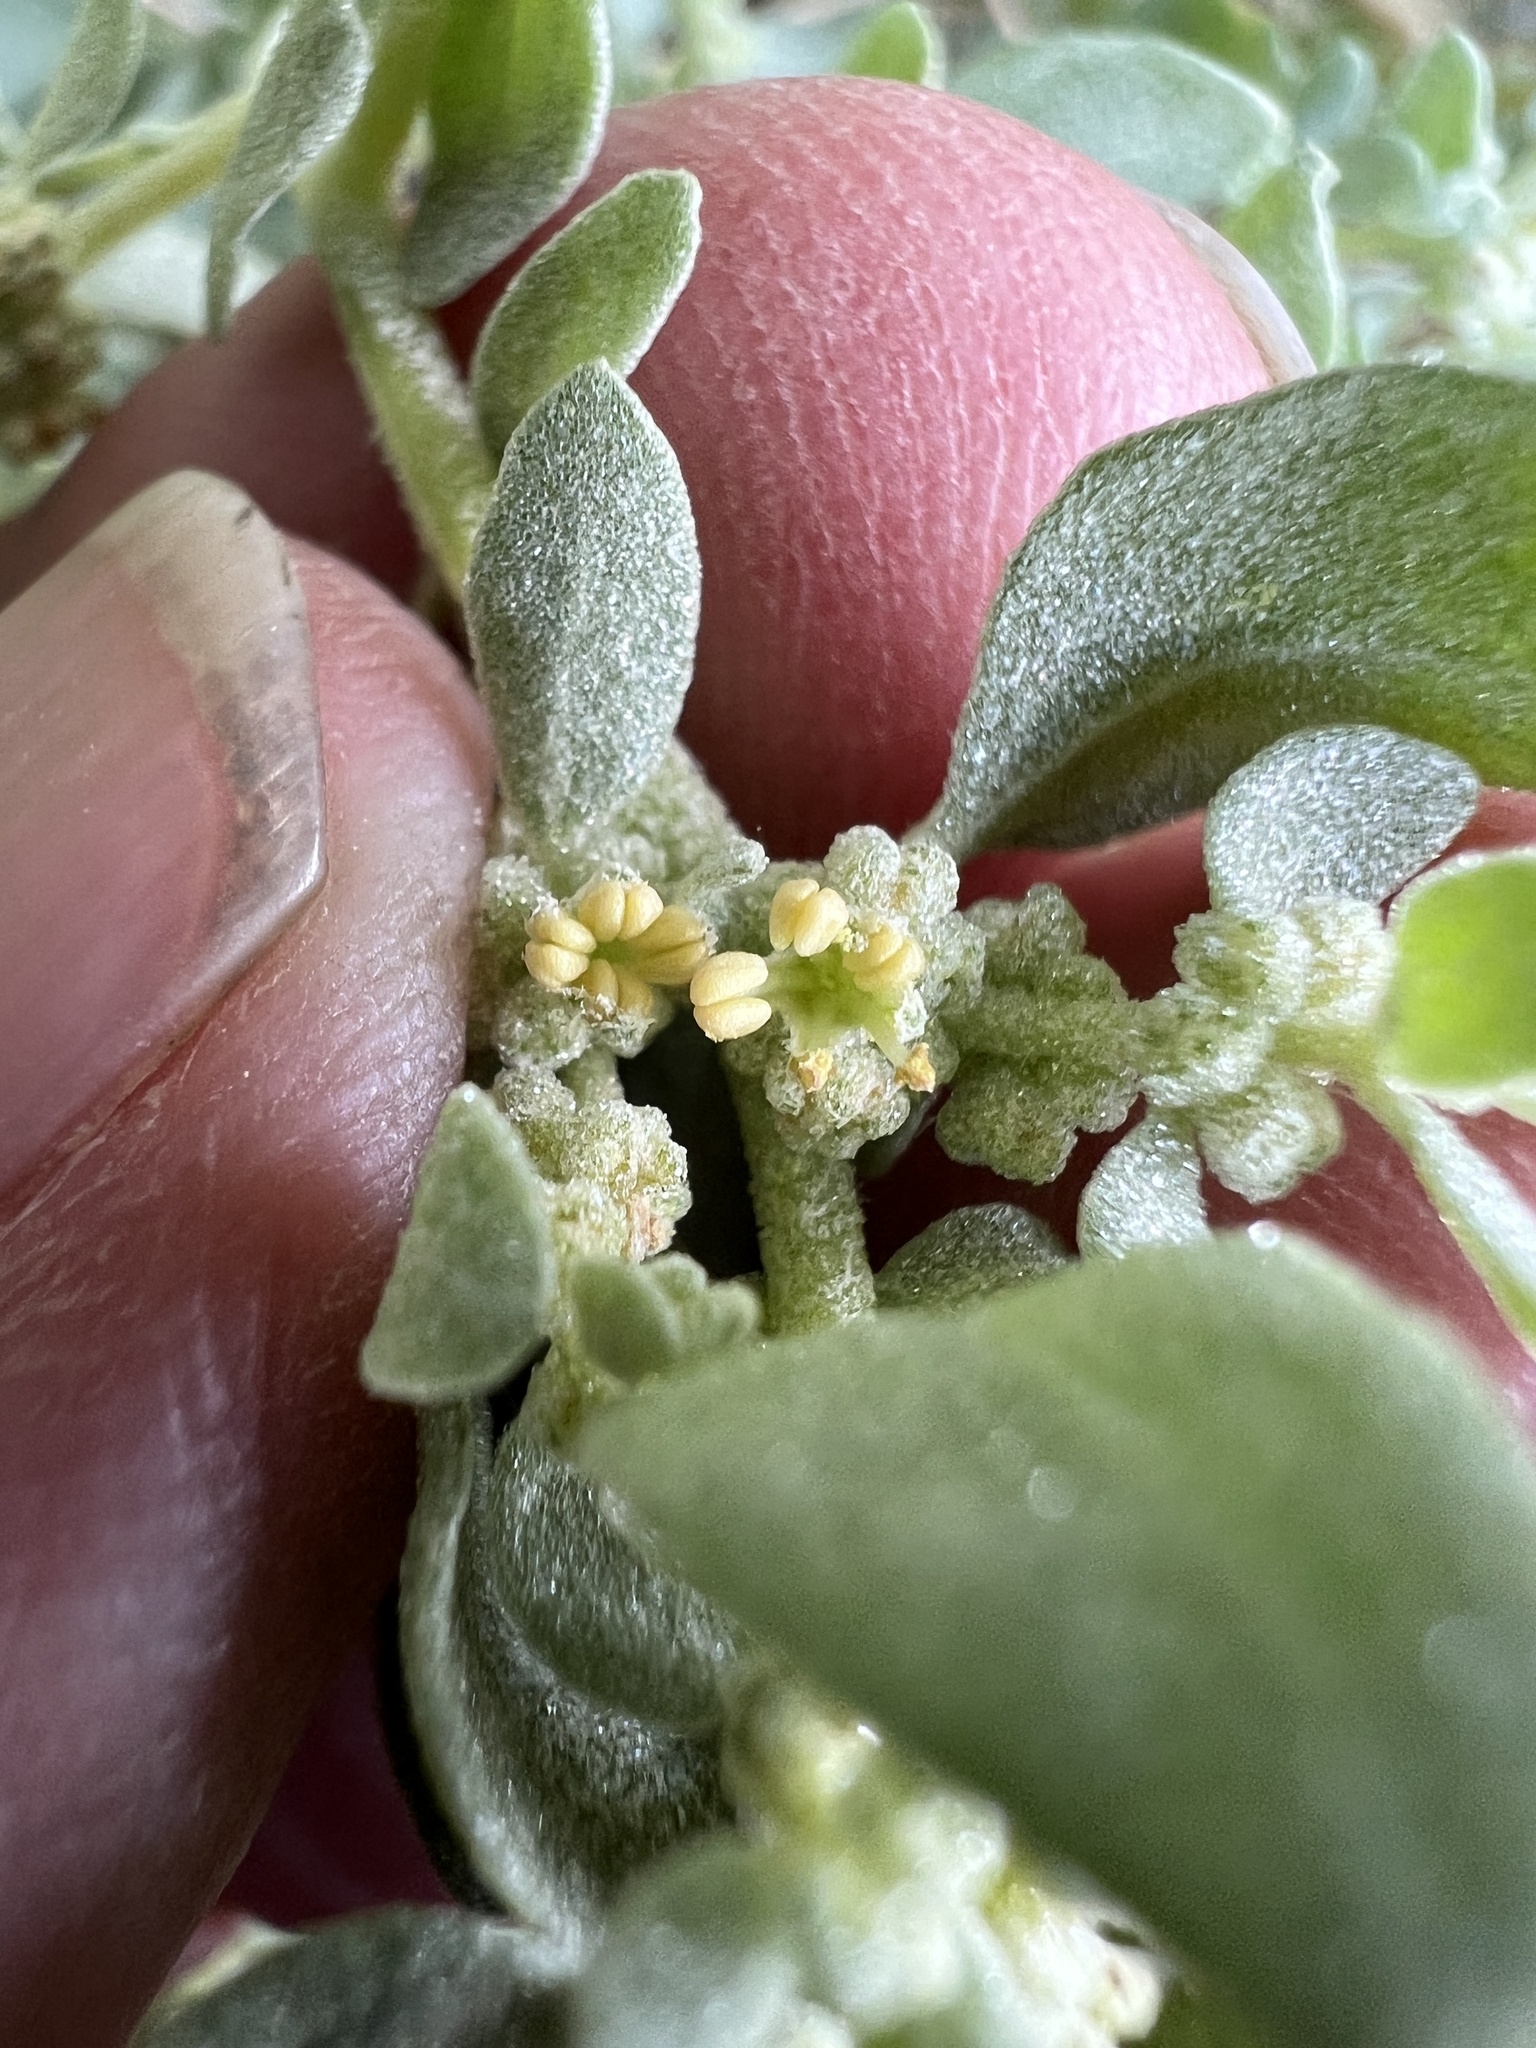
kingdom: Plantae
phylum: Tracheophyta
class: Magnoliopsida
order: Caryophyllales
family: Amaranthaceae
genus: Atriplex
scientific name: Atriplex confertifolia
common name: Shadscale
